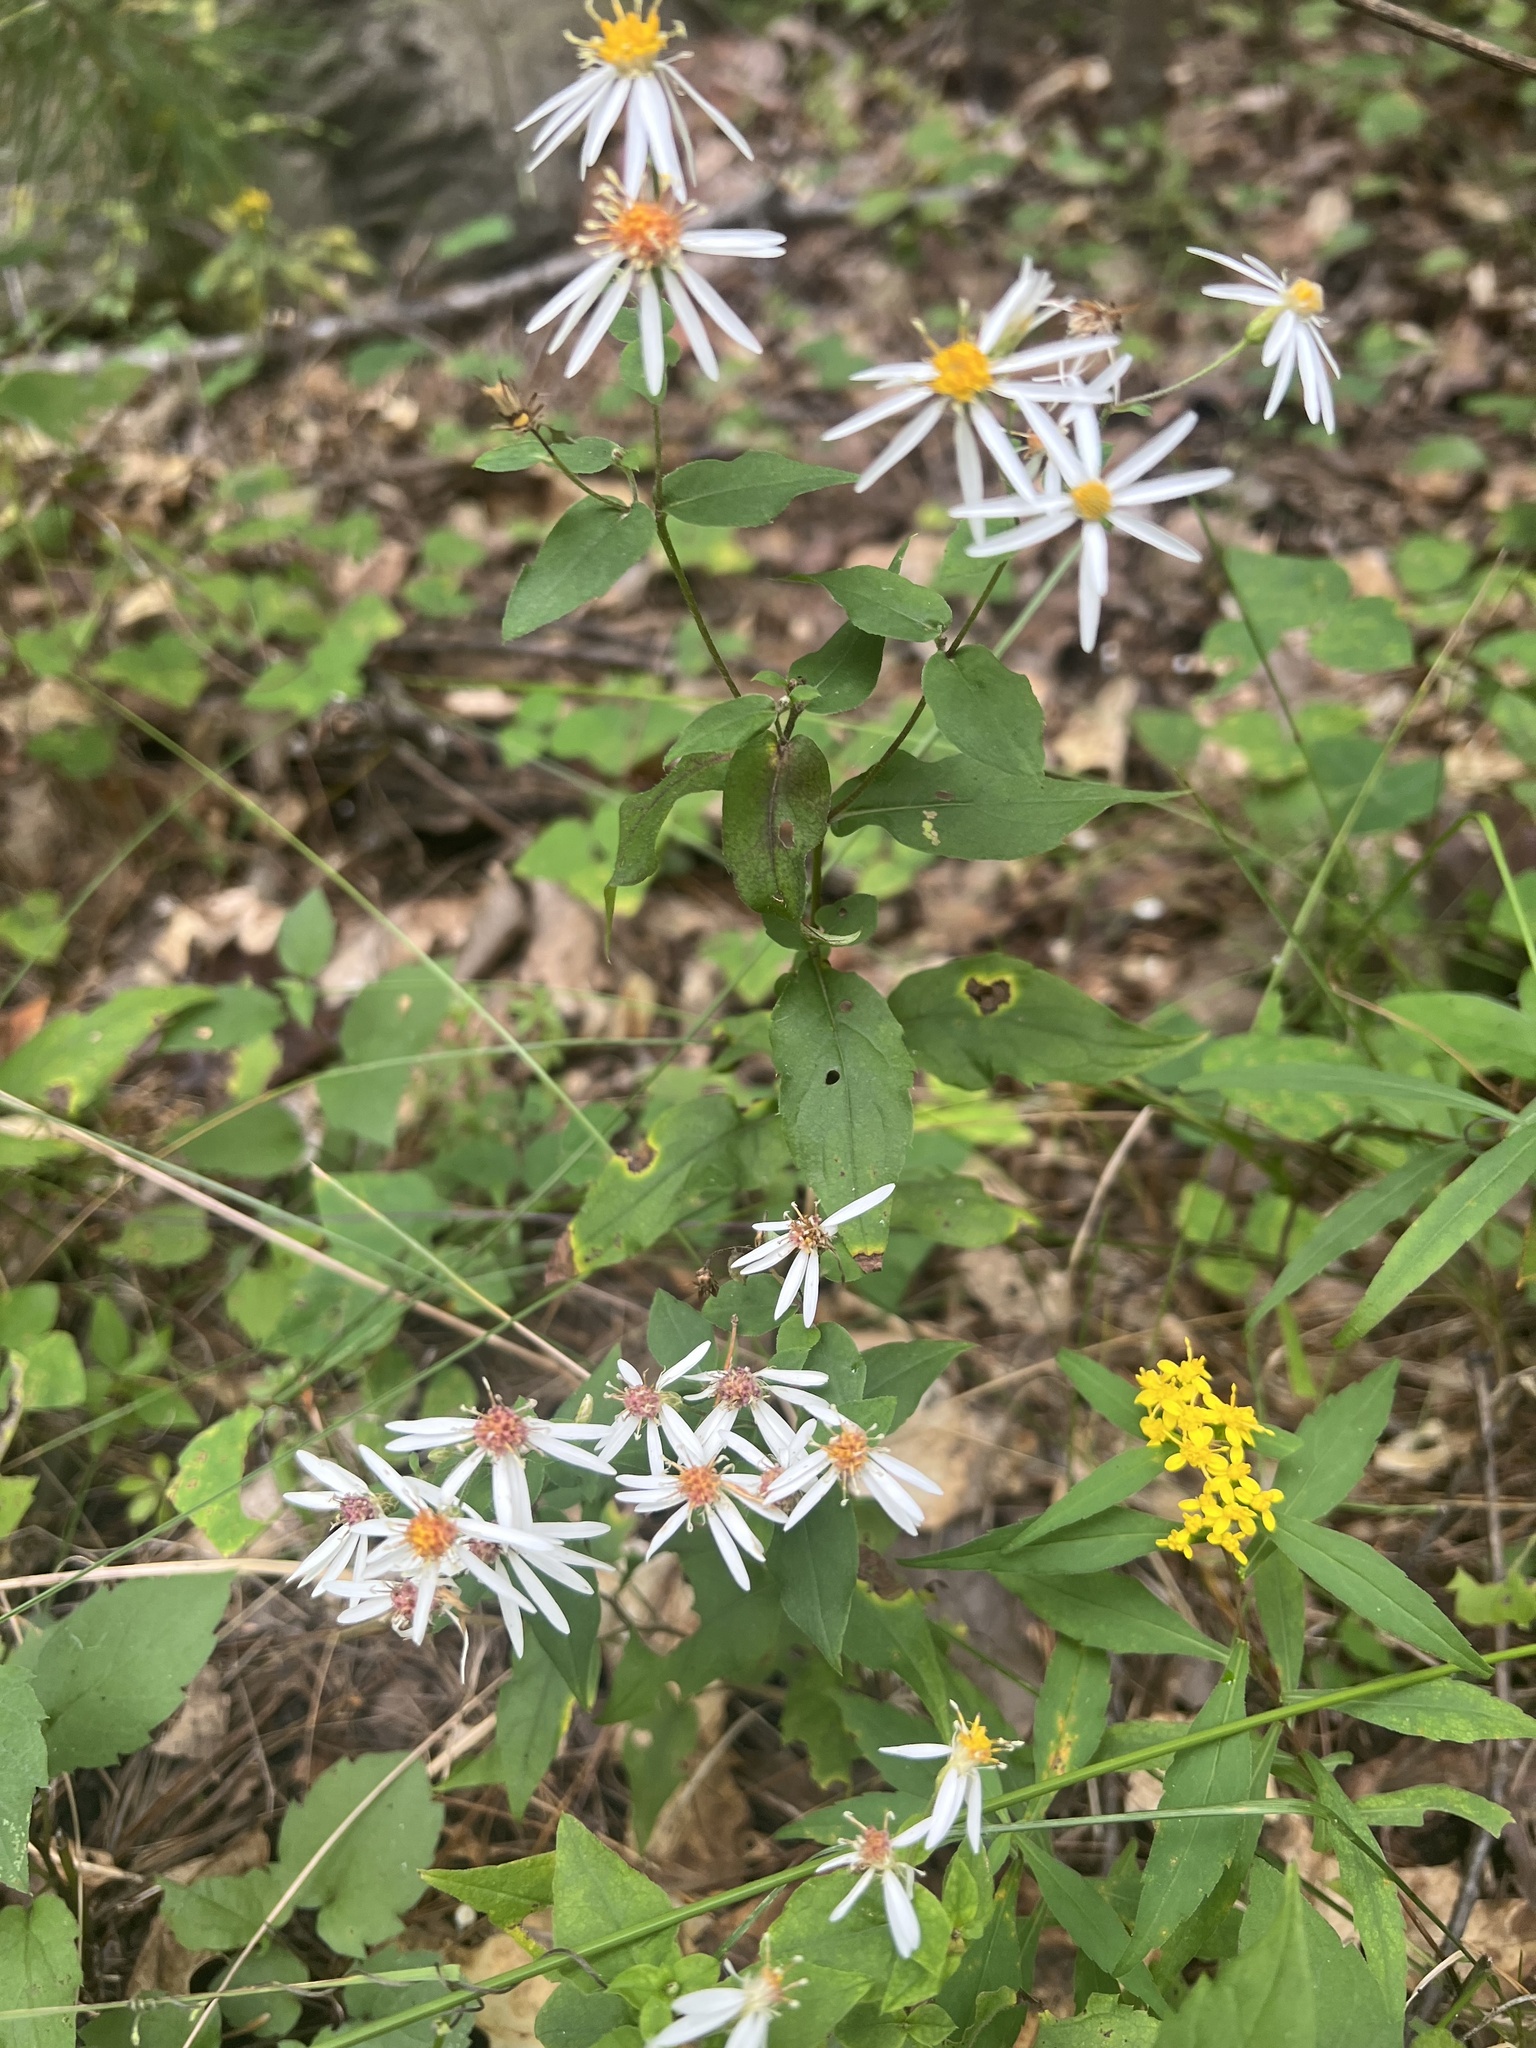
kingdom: Plantae
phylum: Tracheophyta
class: Magnoliopsida
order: Asterales
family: Asteraceae
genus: Eurybia
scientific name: Eurybia divaricata
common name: White wood aster
